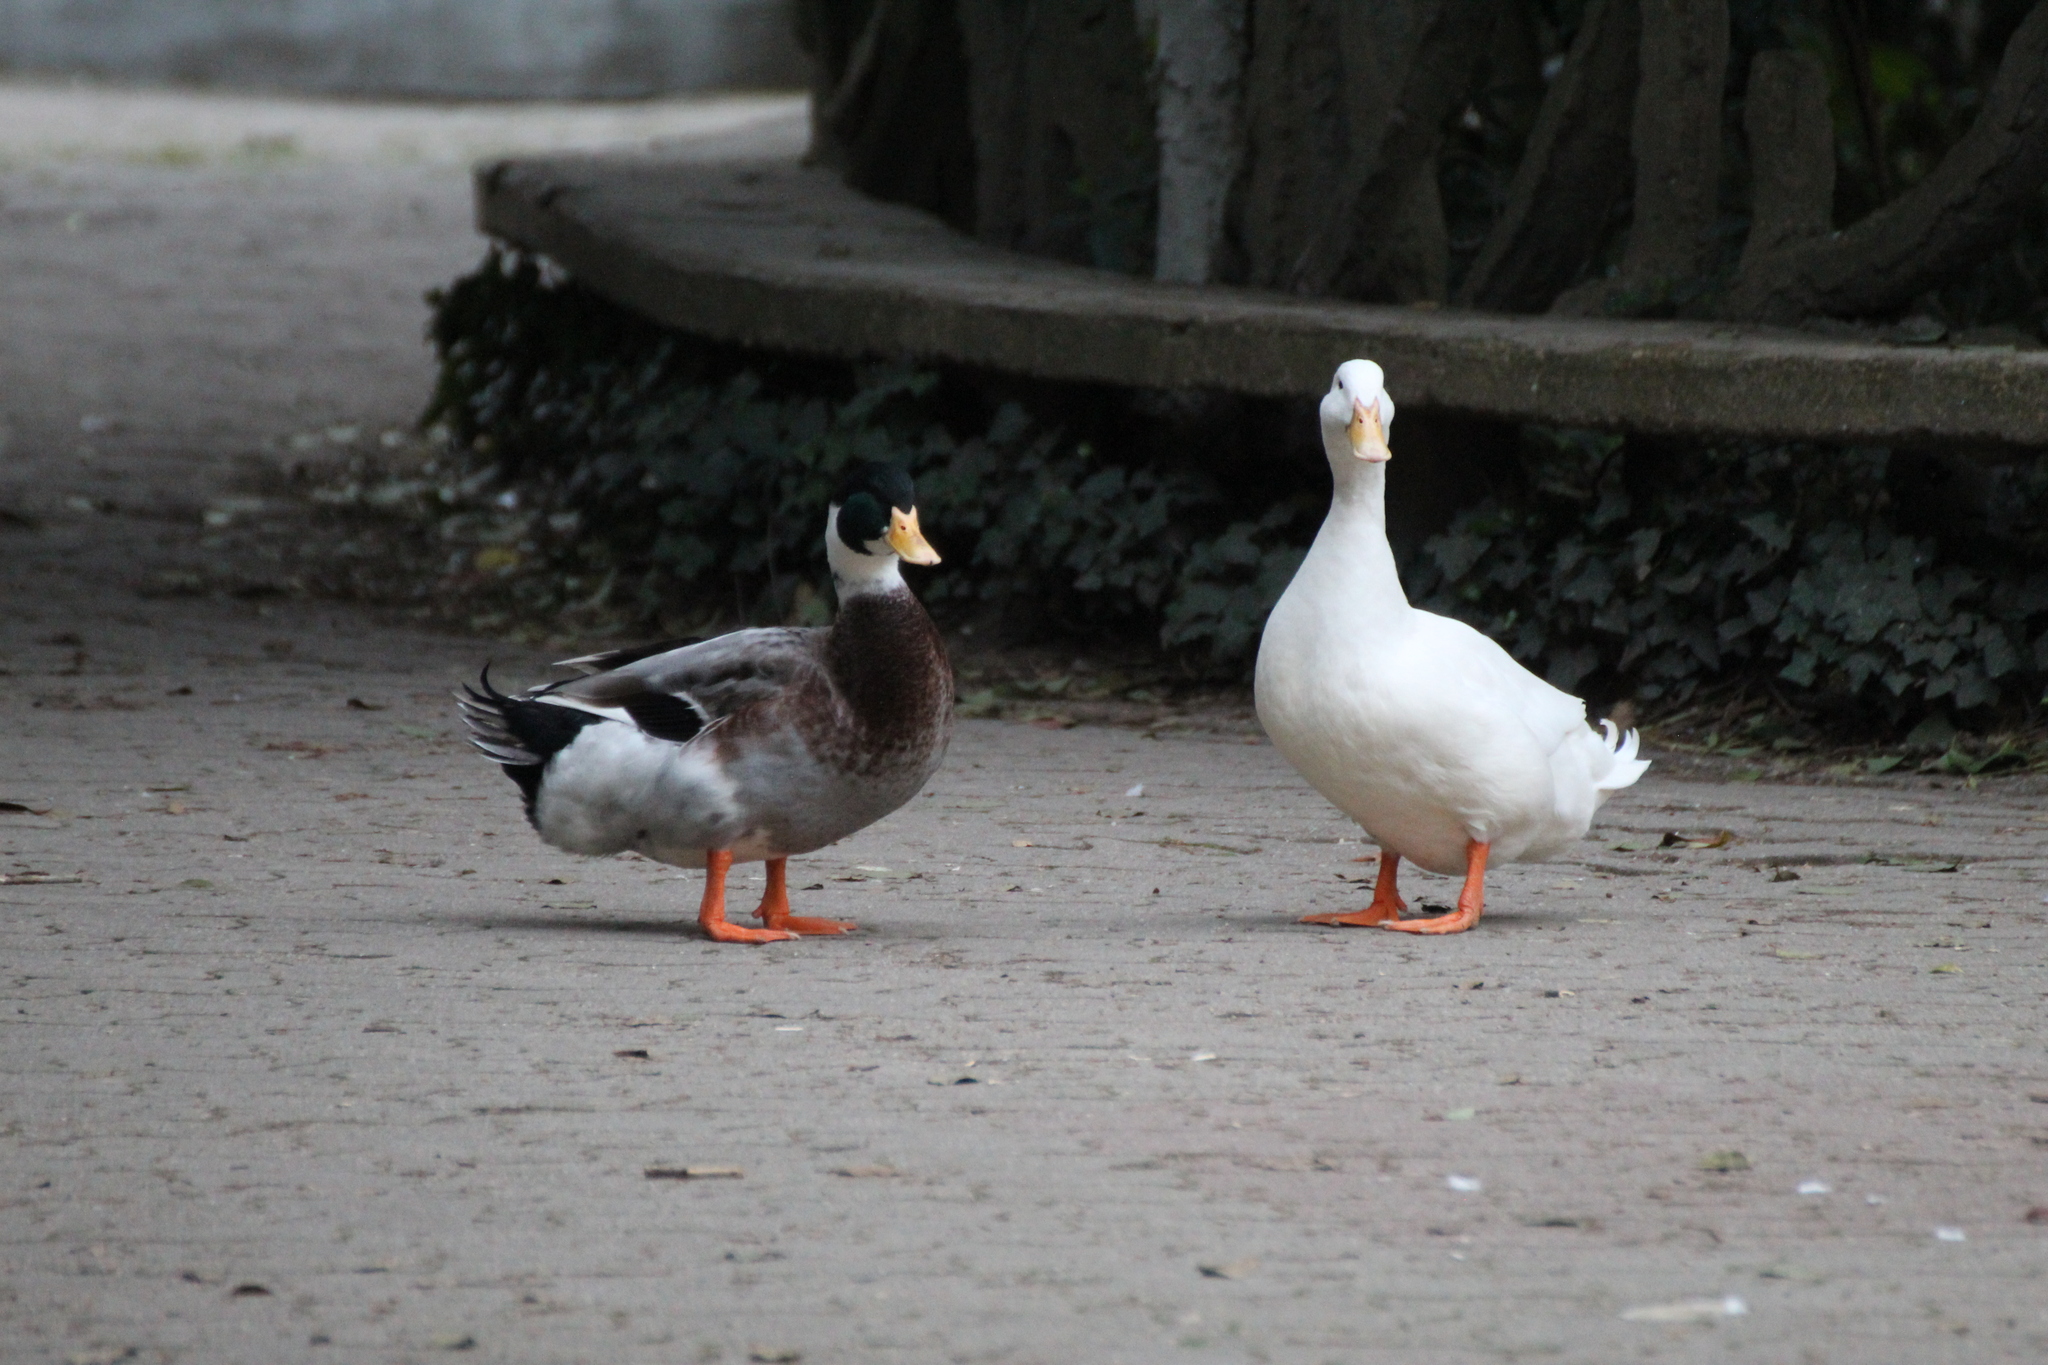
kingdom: Animalia
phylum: Chordata
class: Aves
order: Anseriformes
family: Anatidae
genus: Anas
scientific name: Anas platyrhynchos
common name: Mallard
